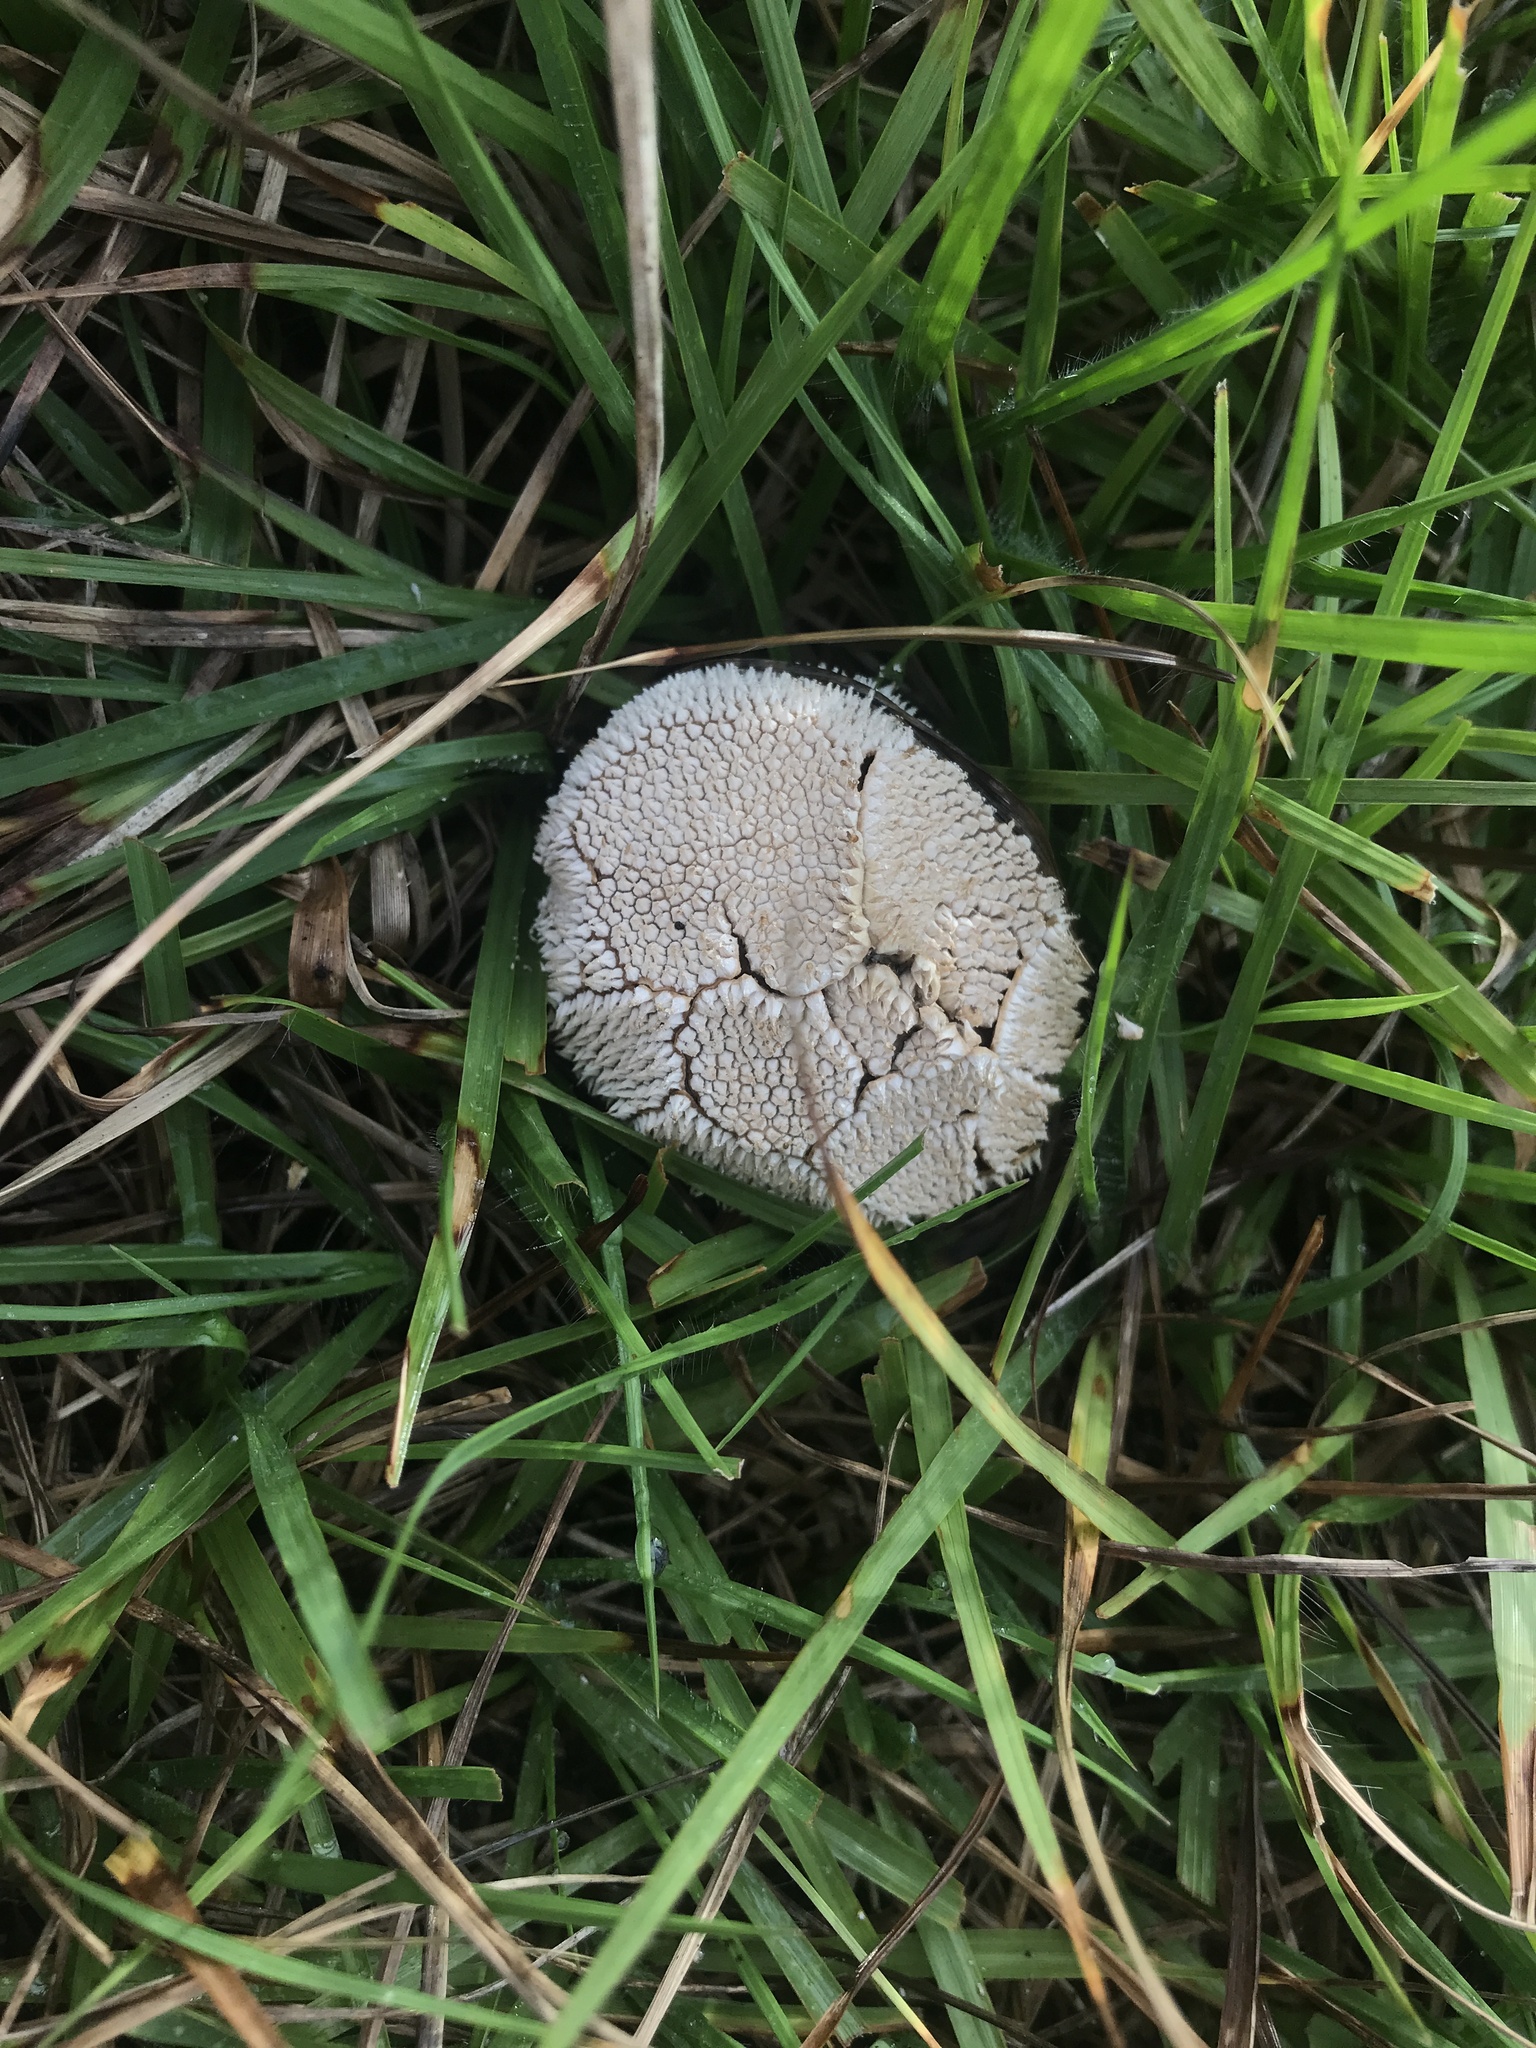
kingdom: Fungi
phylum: Basidiomycota
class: Agaricomycetes
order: Agaricales
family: Agaricaceae
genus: Lycoperdon
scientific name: Lycoperdon marginatum
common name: Peeling puffball
